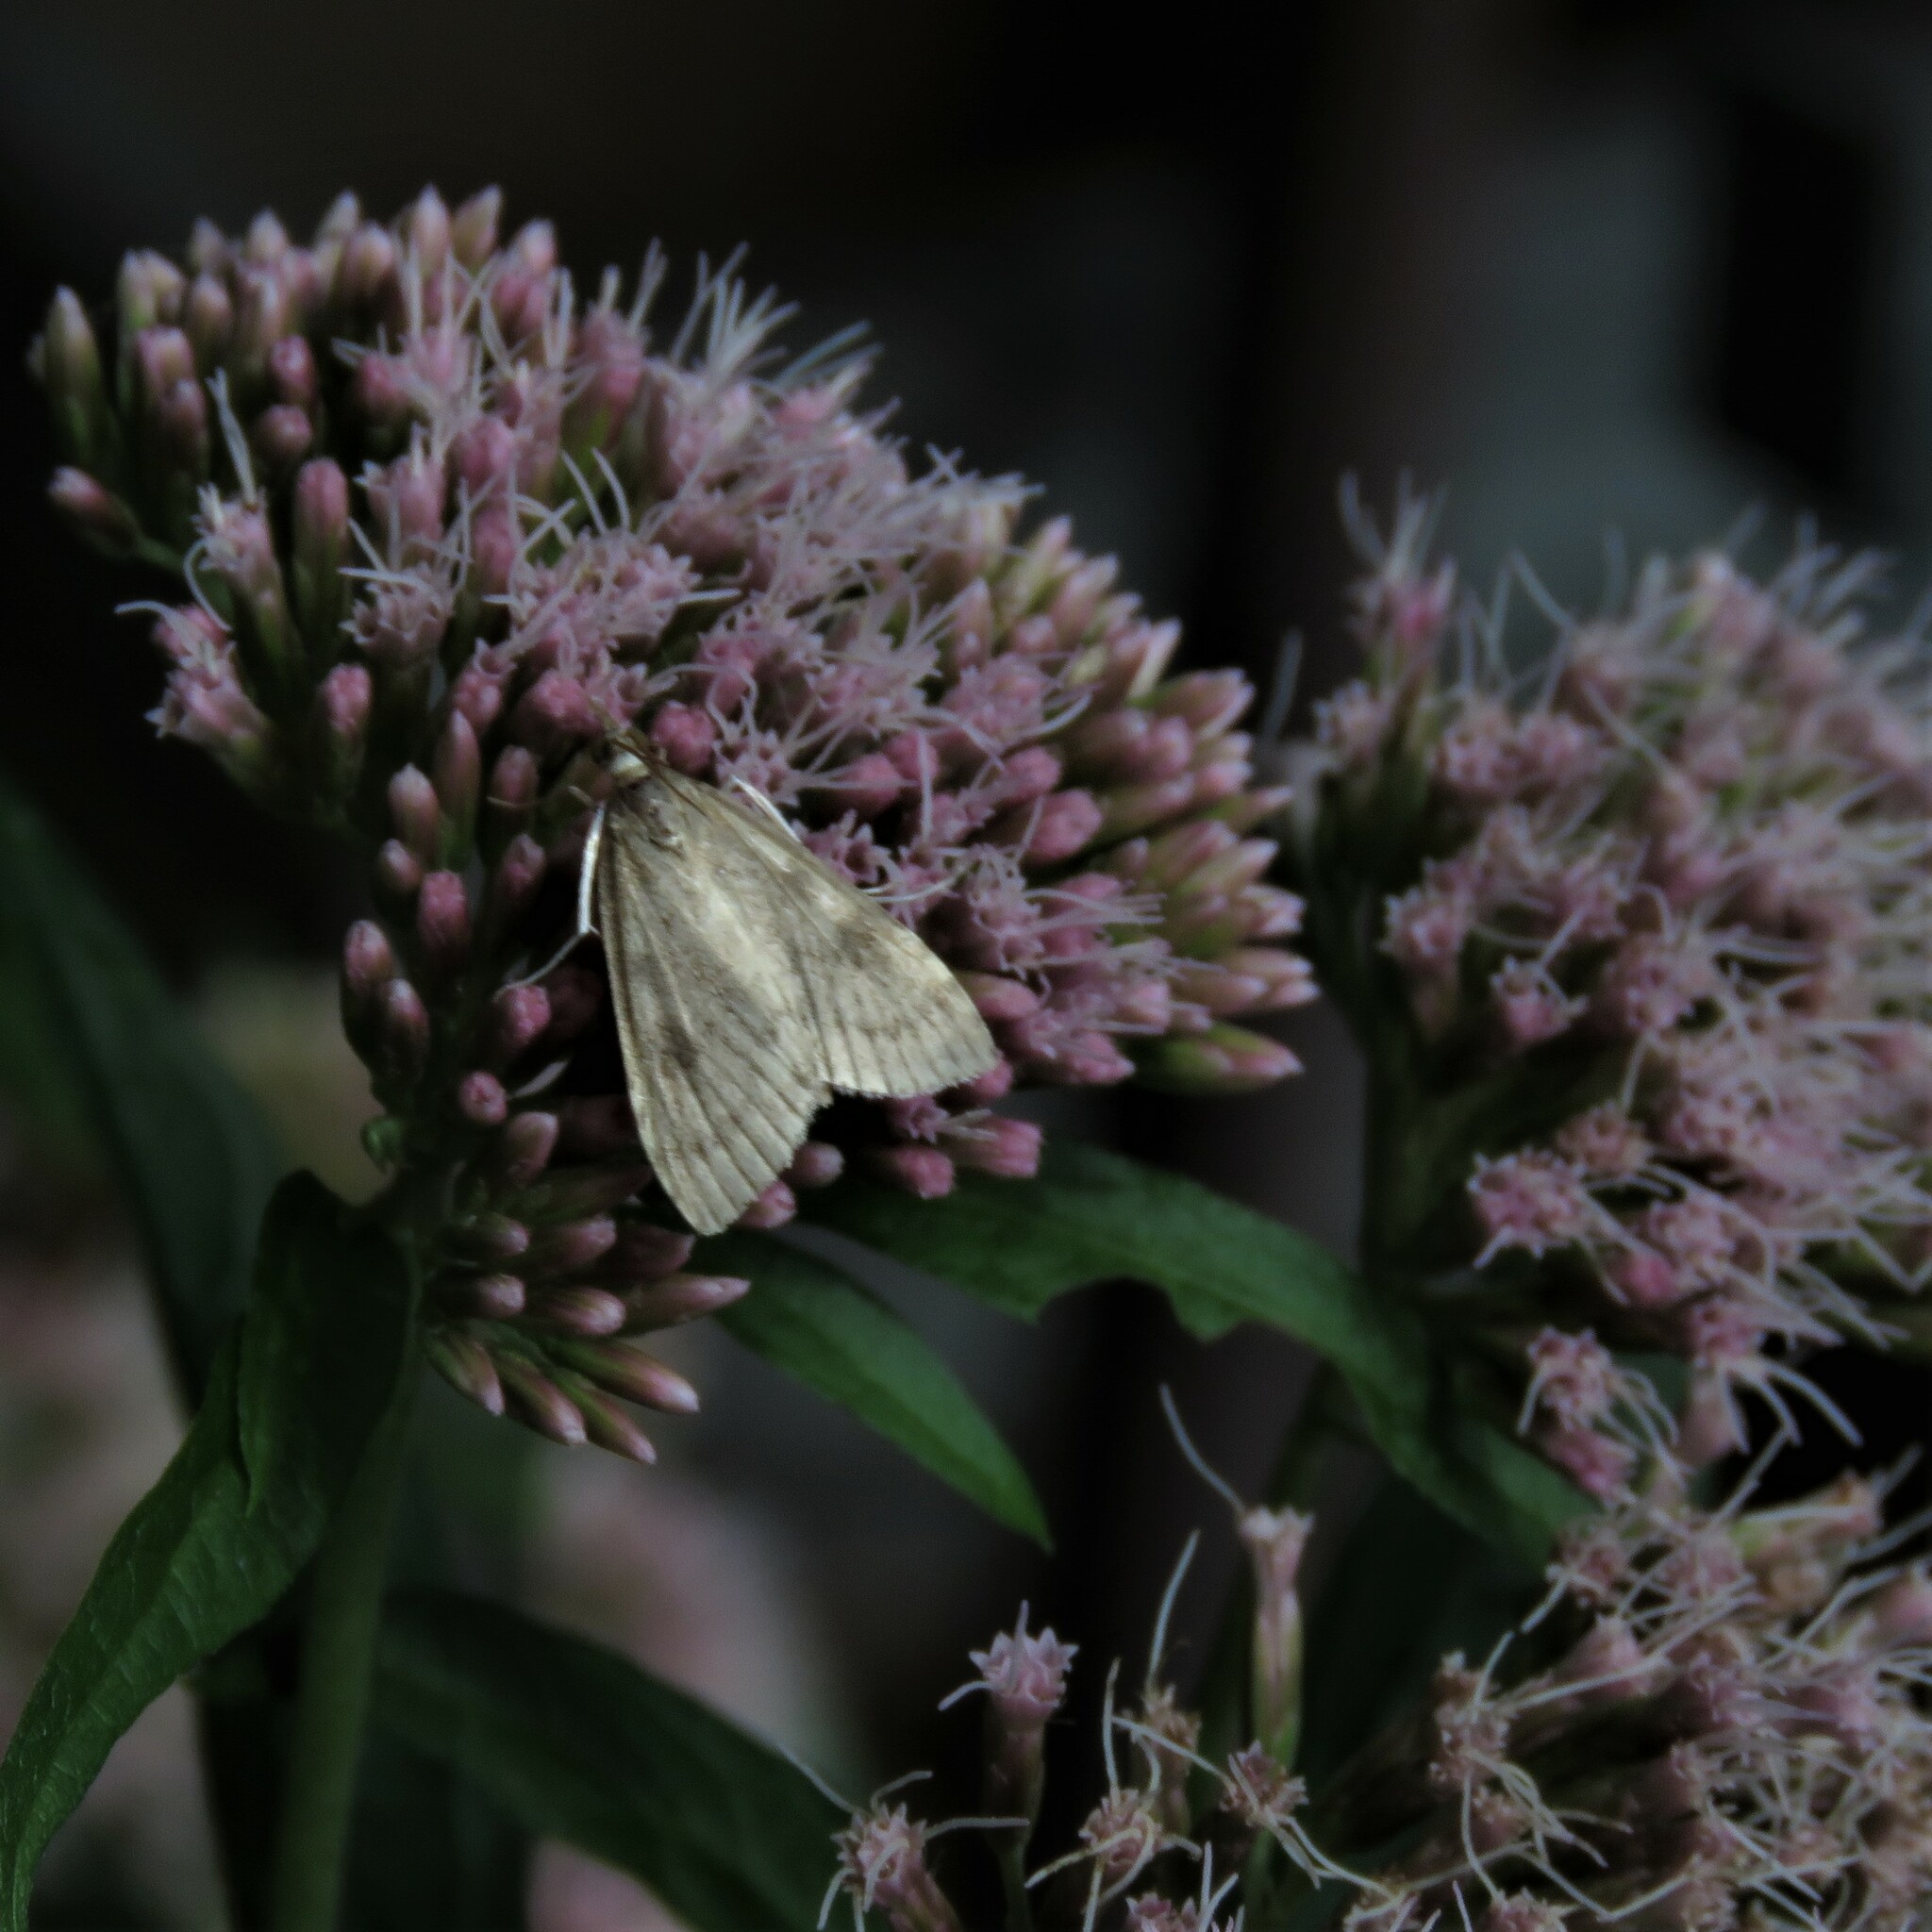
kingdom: Animalia
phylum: Arthropoda
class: Insecta
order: Lepidoptera
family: Crambidae
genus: Udea
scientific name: Udea prunalis
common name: Dusky pearl
